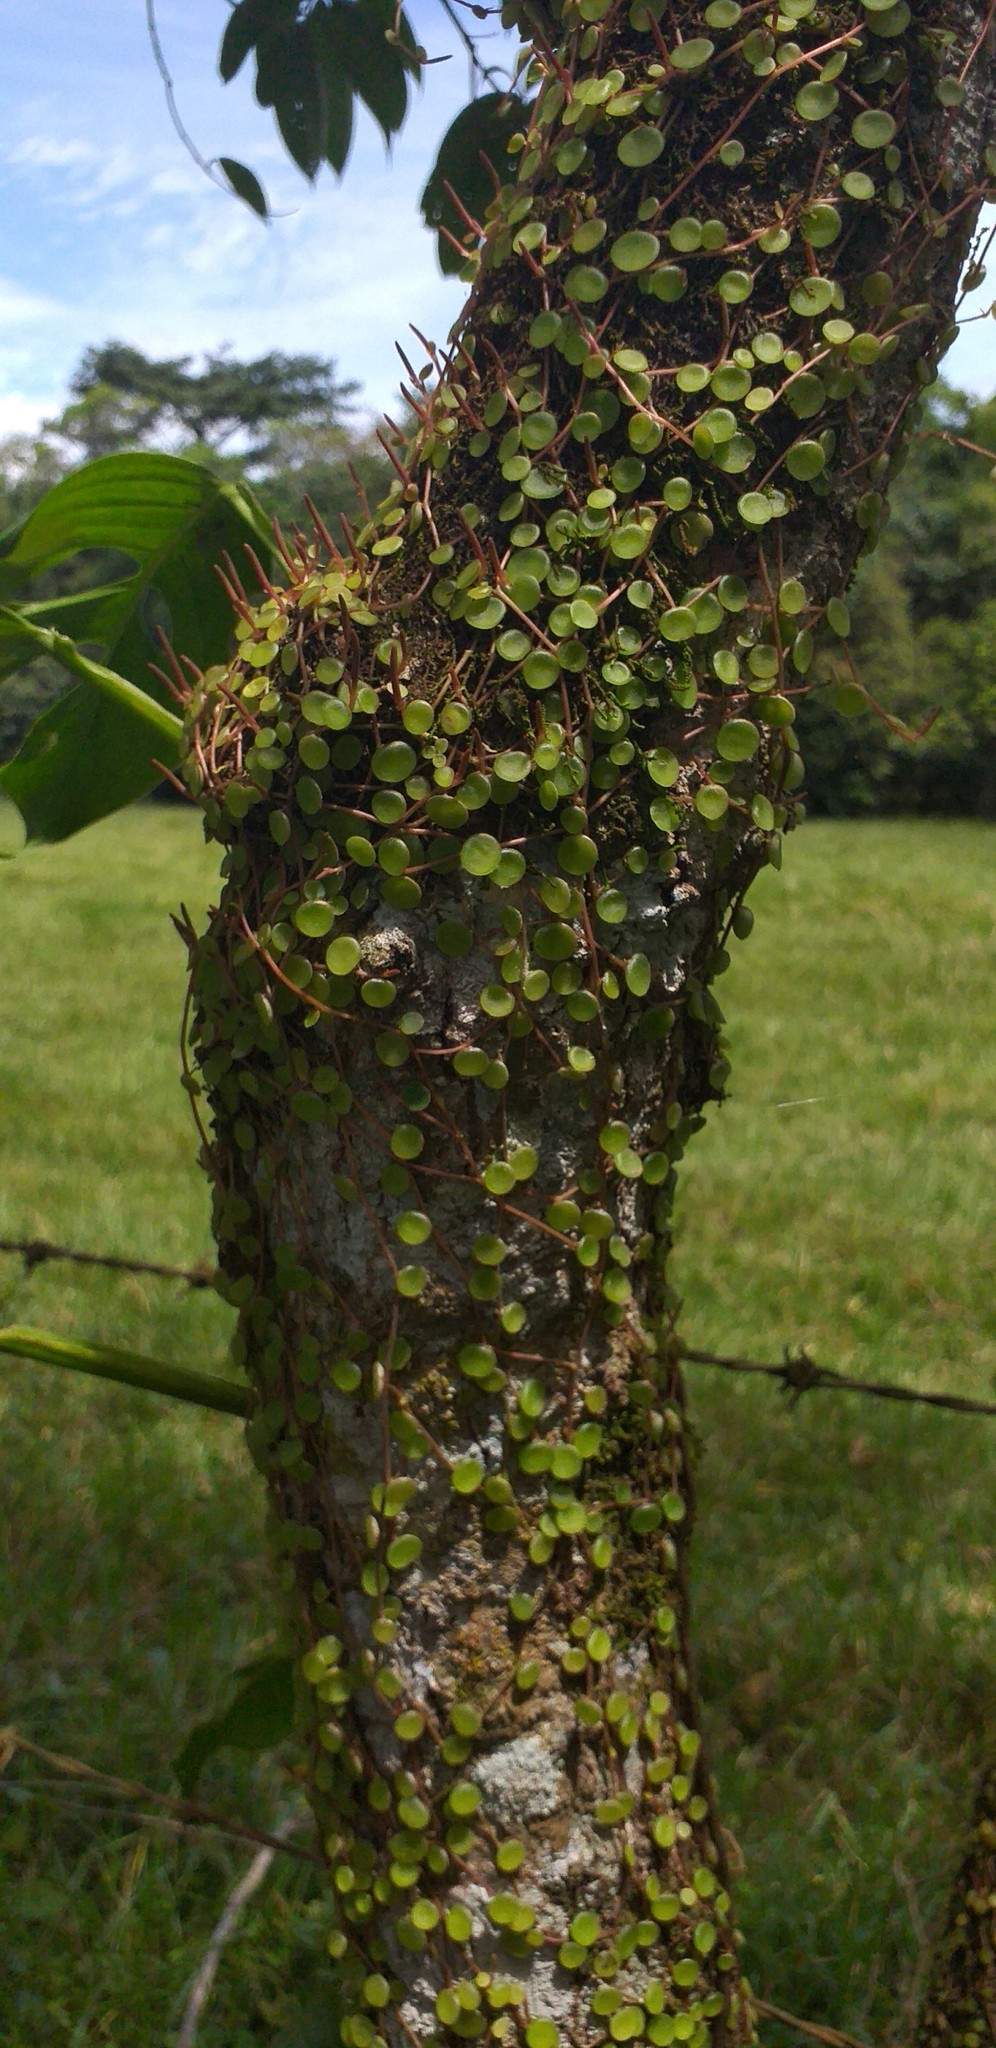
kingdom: Plantae
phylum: Tracheophyta
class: Magnoliopsida
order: Piperales
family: Piperaceae
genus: Peperomia
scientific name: Peperomia rotundifolia
